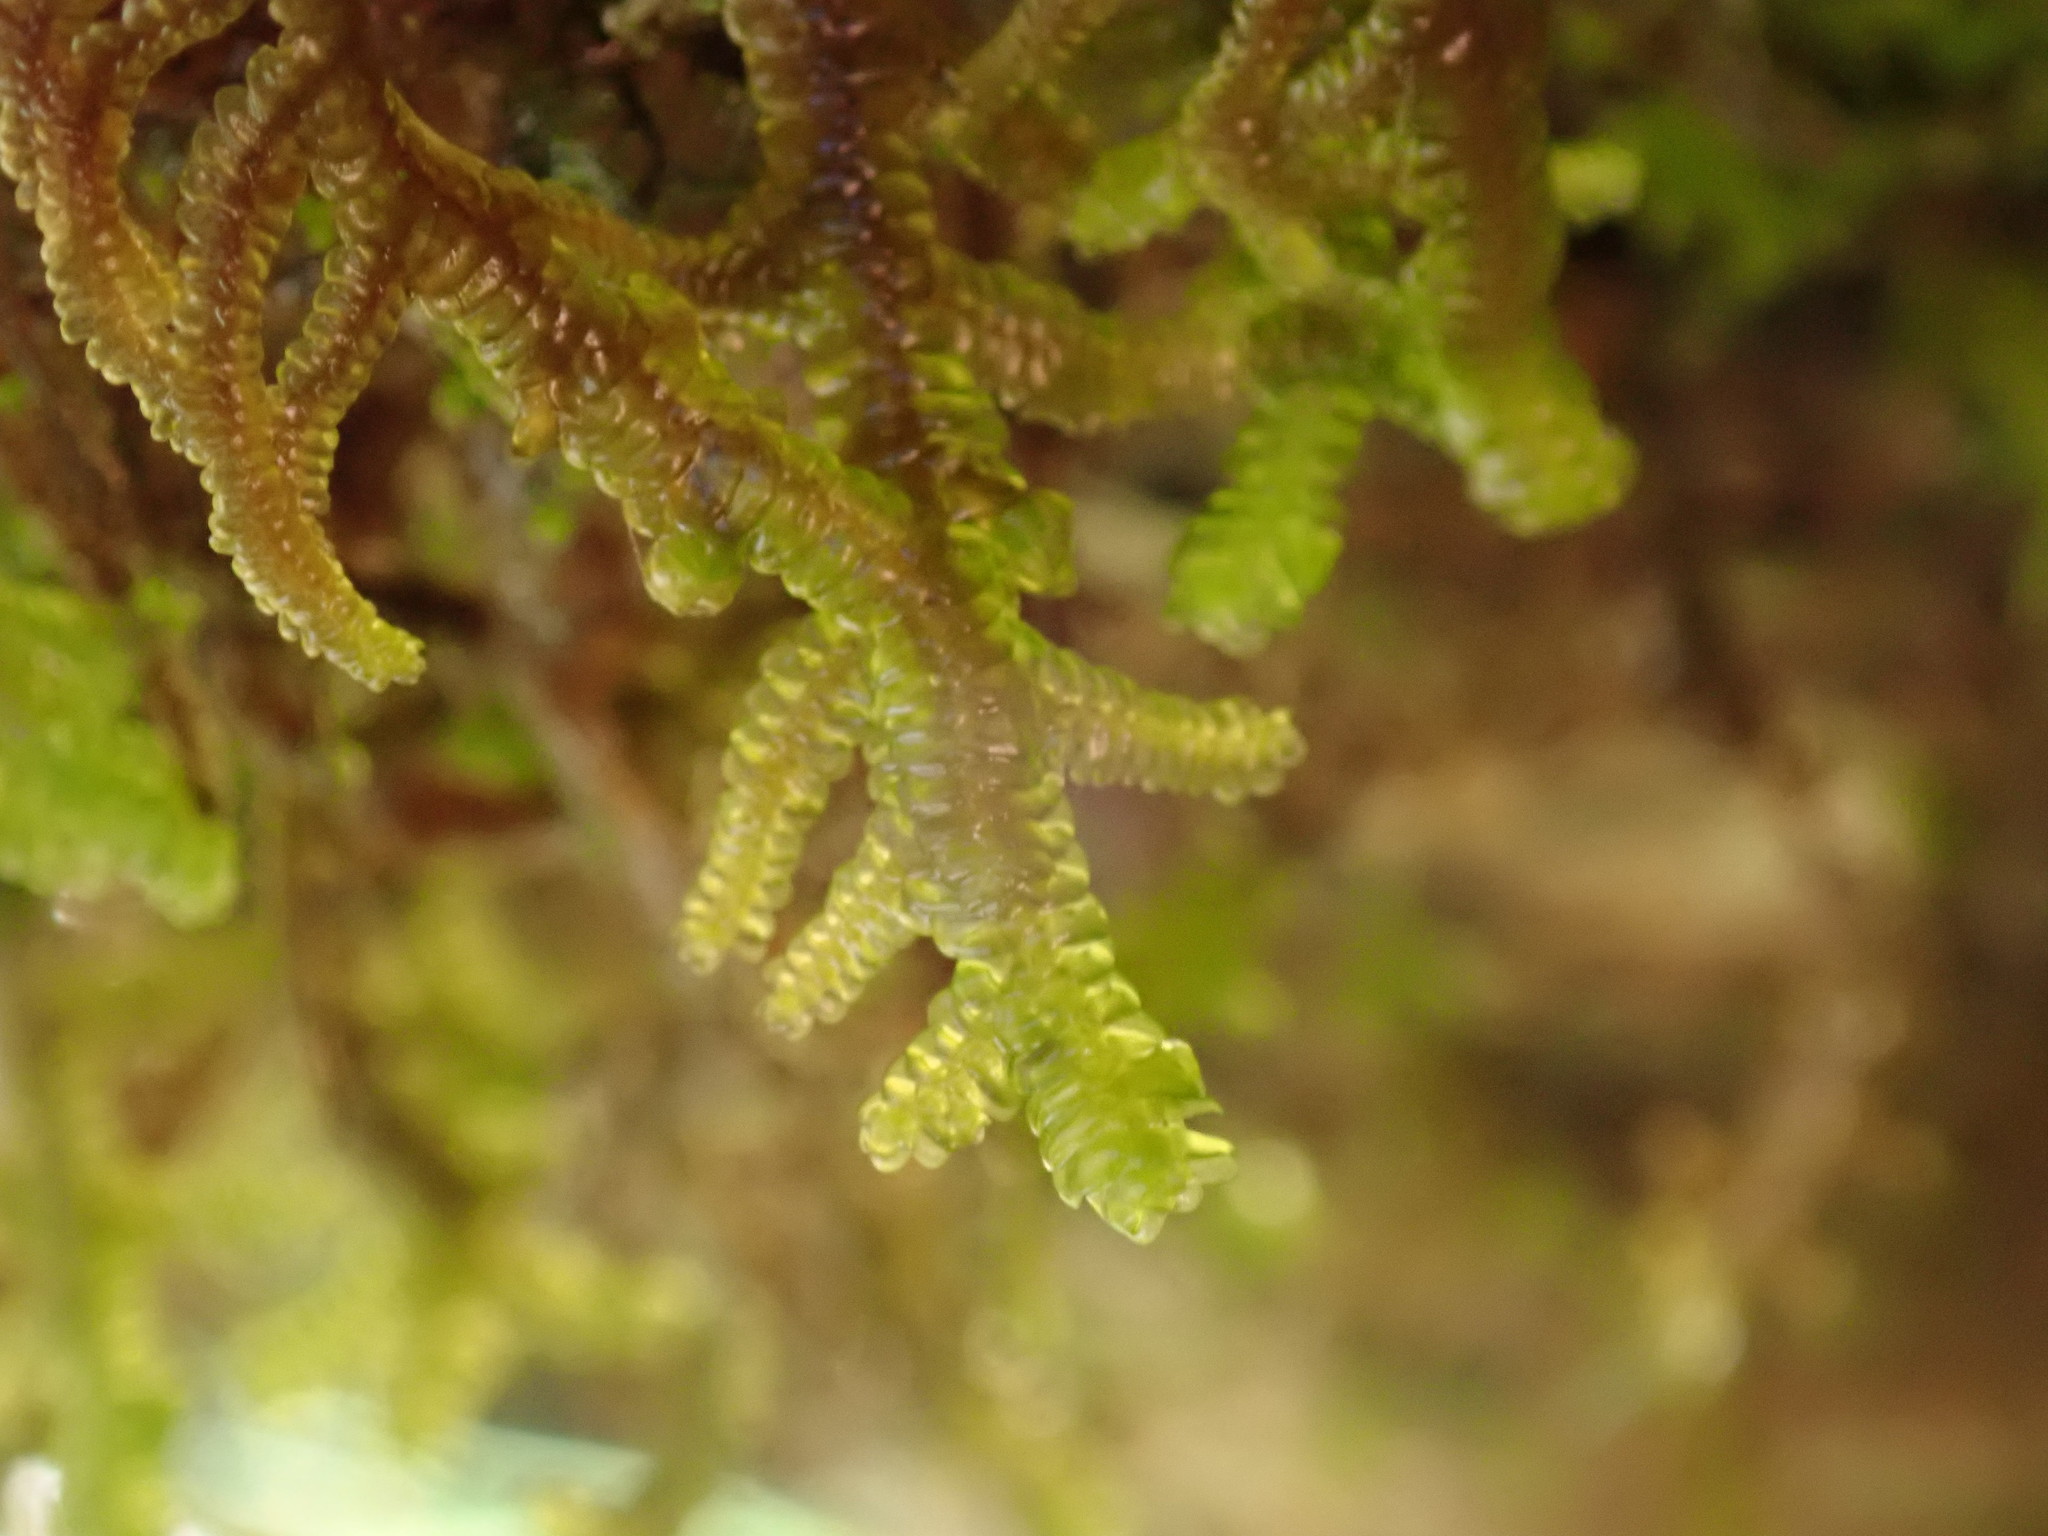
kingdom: Plantae
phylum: Marchantiophyta
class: Jungermanniopsida
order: Porellales
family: Porellaceae
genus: Porella
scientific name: Porella navicularis
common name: Tree ruffle liverwort
